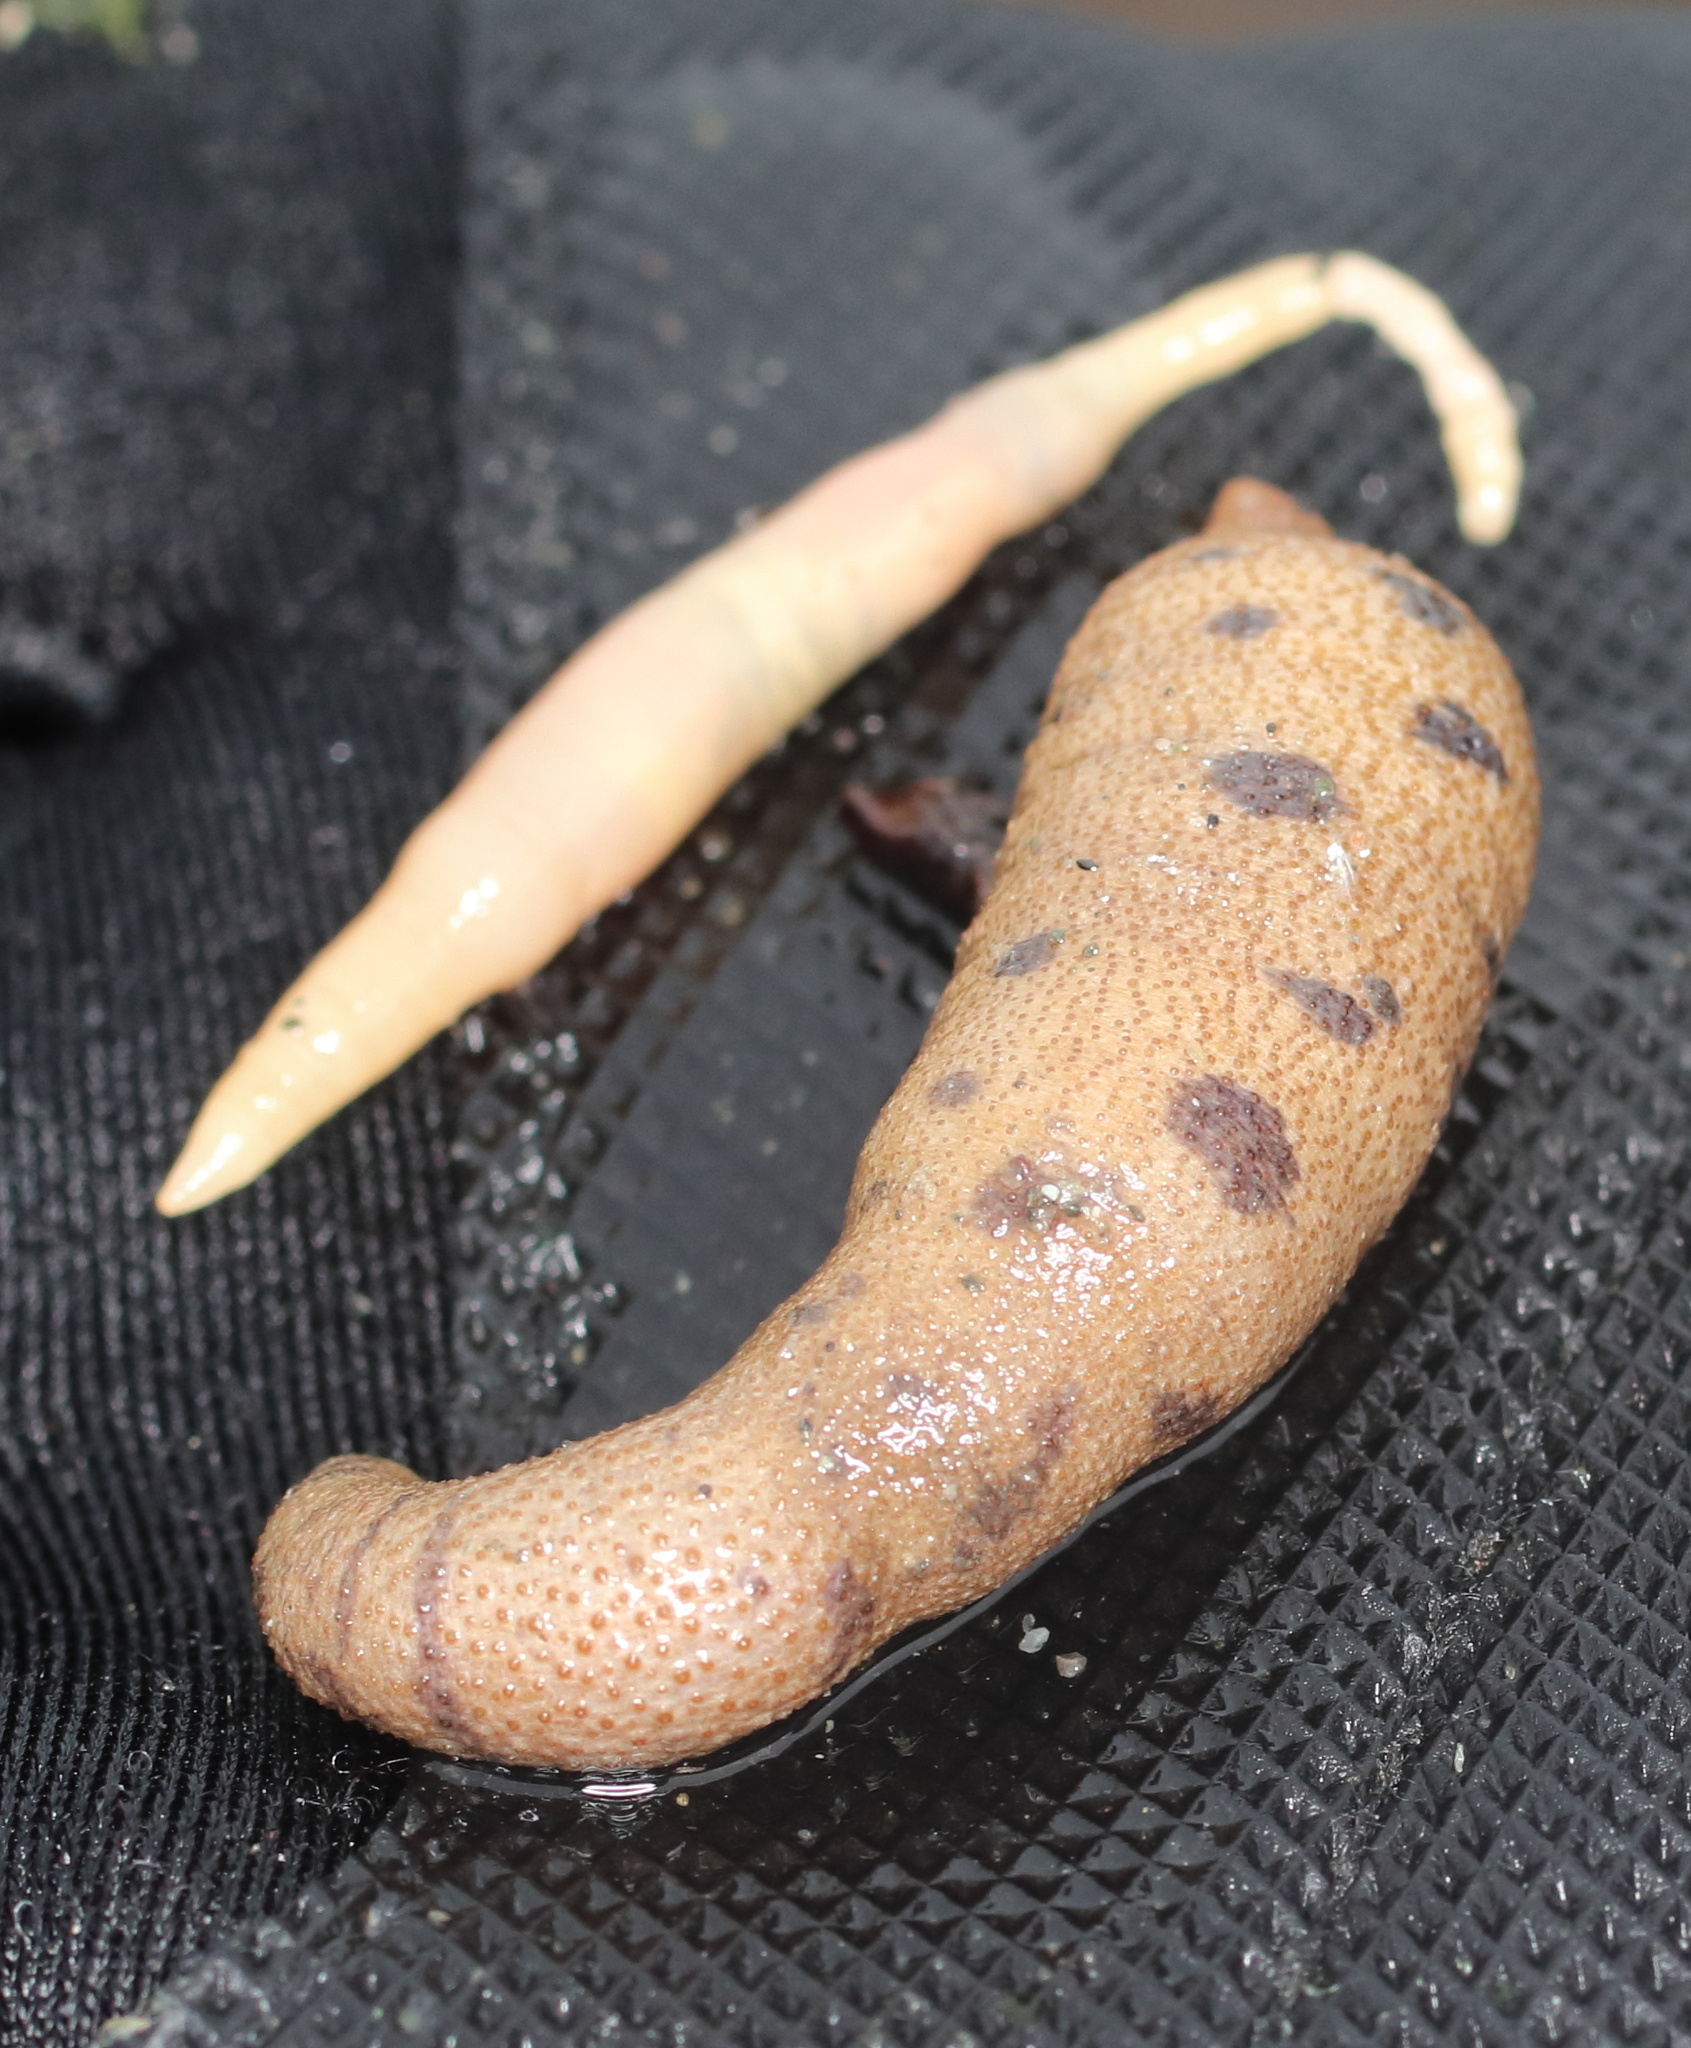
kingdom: Animalia
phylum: Sipuncula
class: Phascolosomatidea
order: Phascolosomatiformes
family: Phascolosomatidae
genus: Phascolosoma
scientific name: Phascolosoma agassizii
